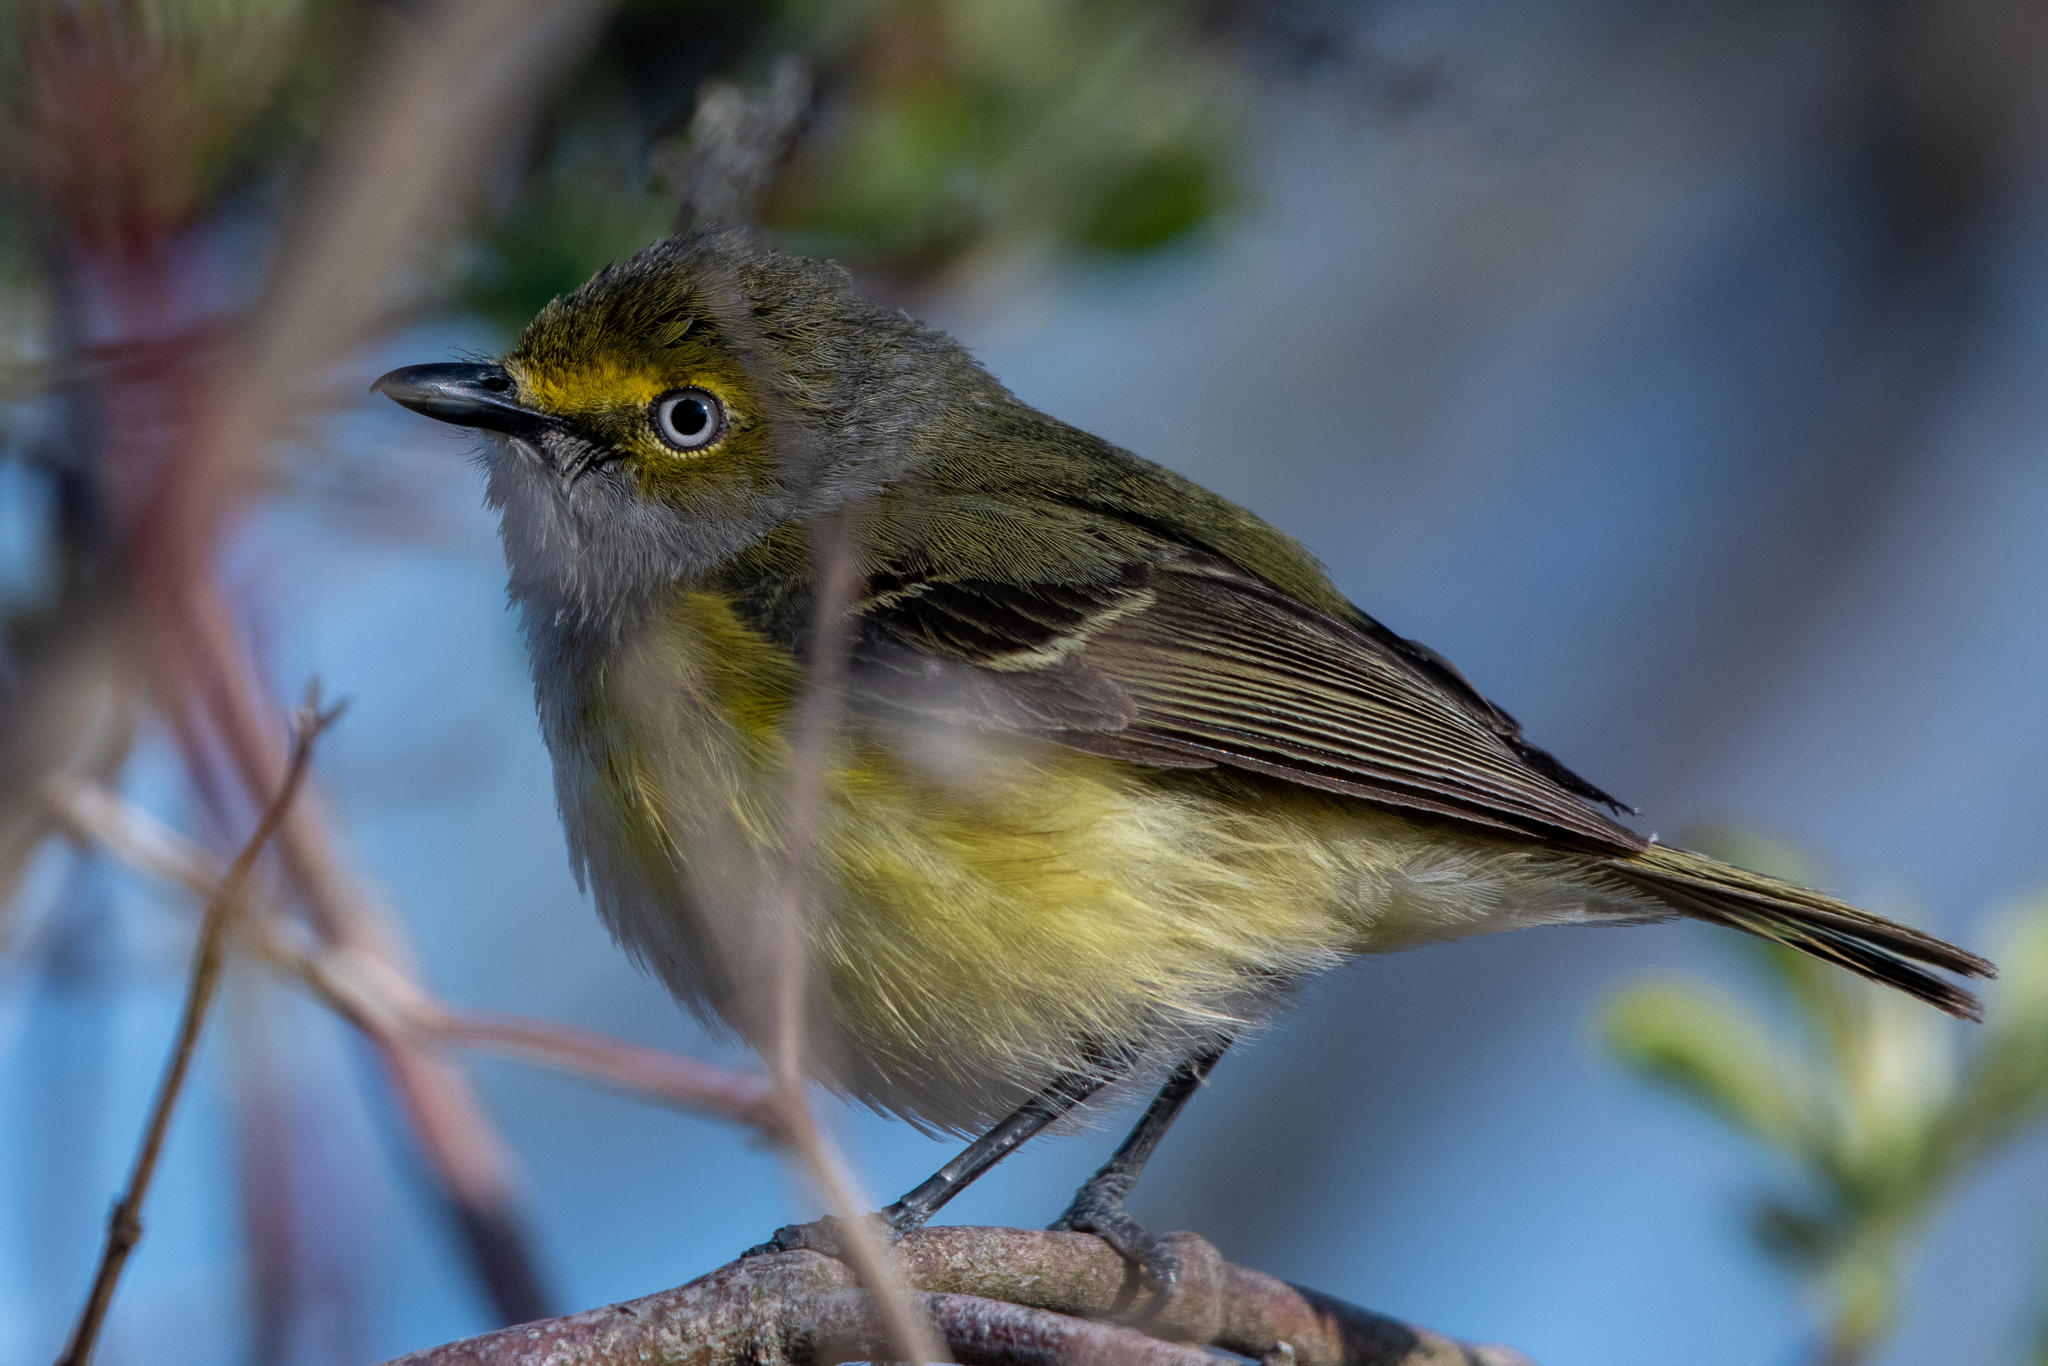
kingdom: Animalia
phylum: Chordata
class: Aves
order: Passeriformes
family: Vireonidae
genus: Vireo
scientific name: Vireo griseus
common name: White-eyed vireo
